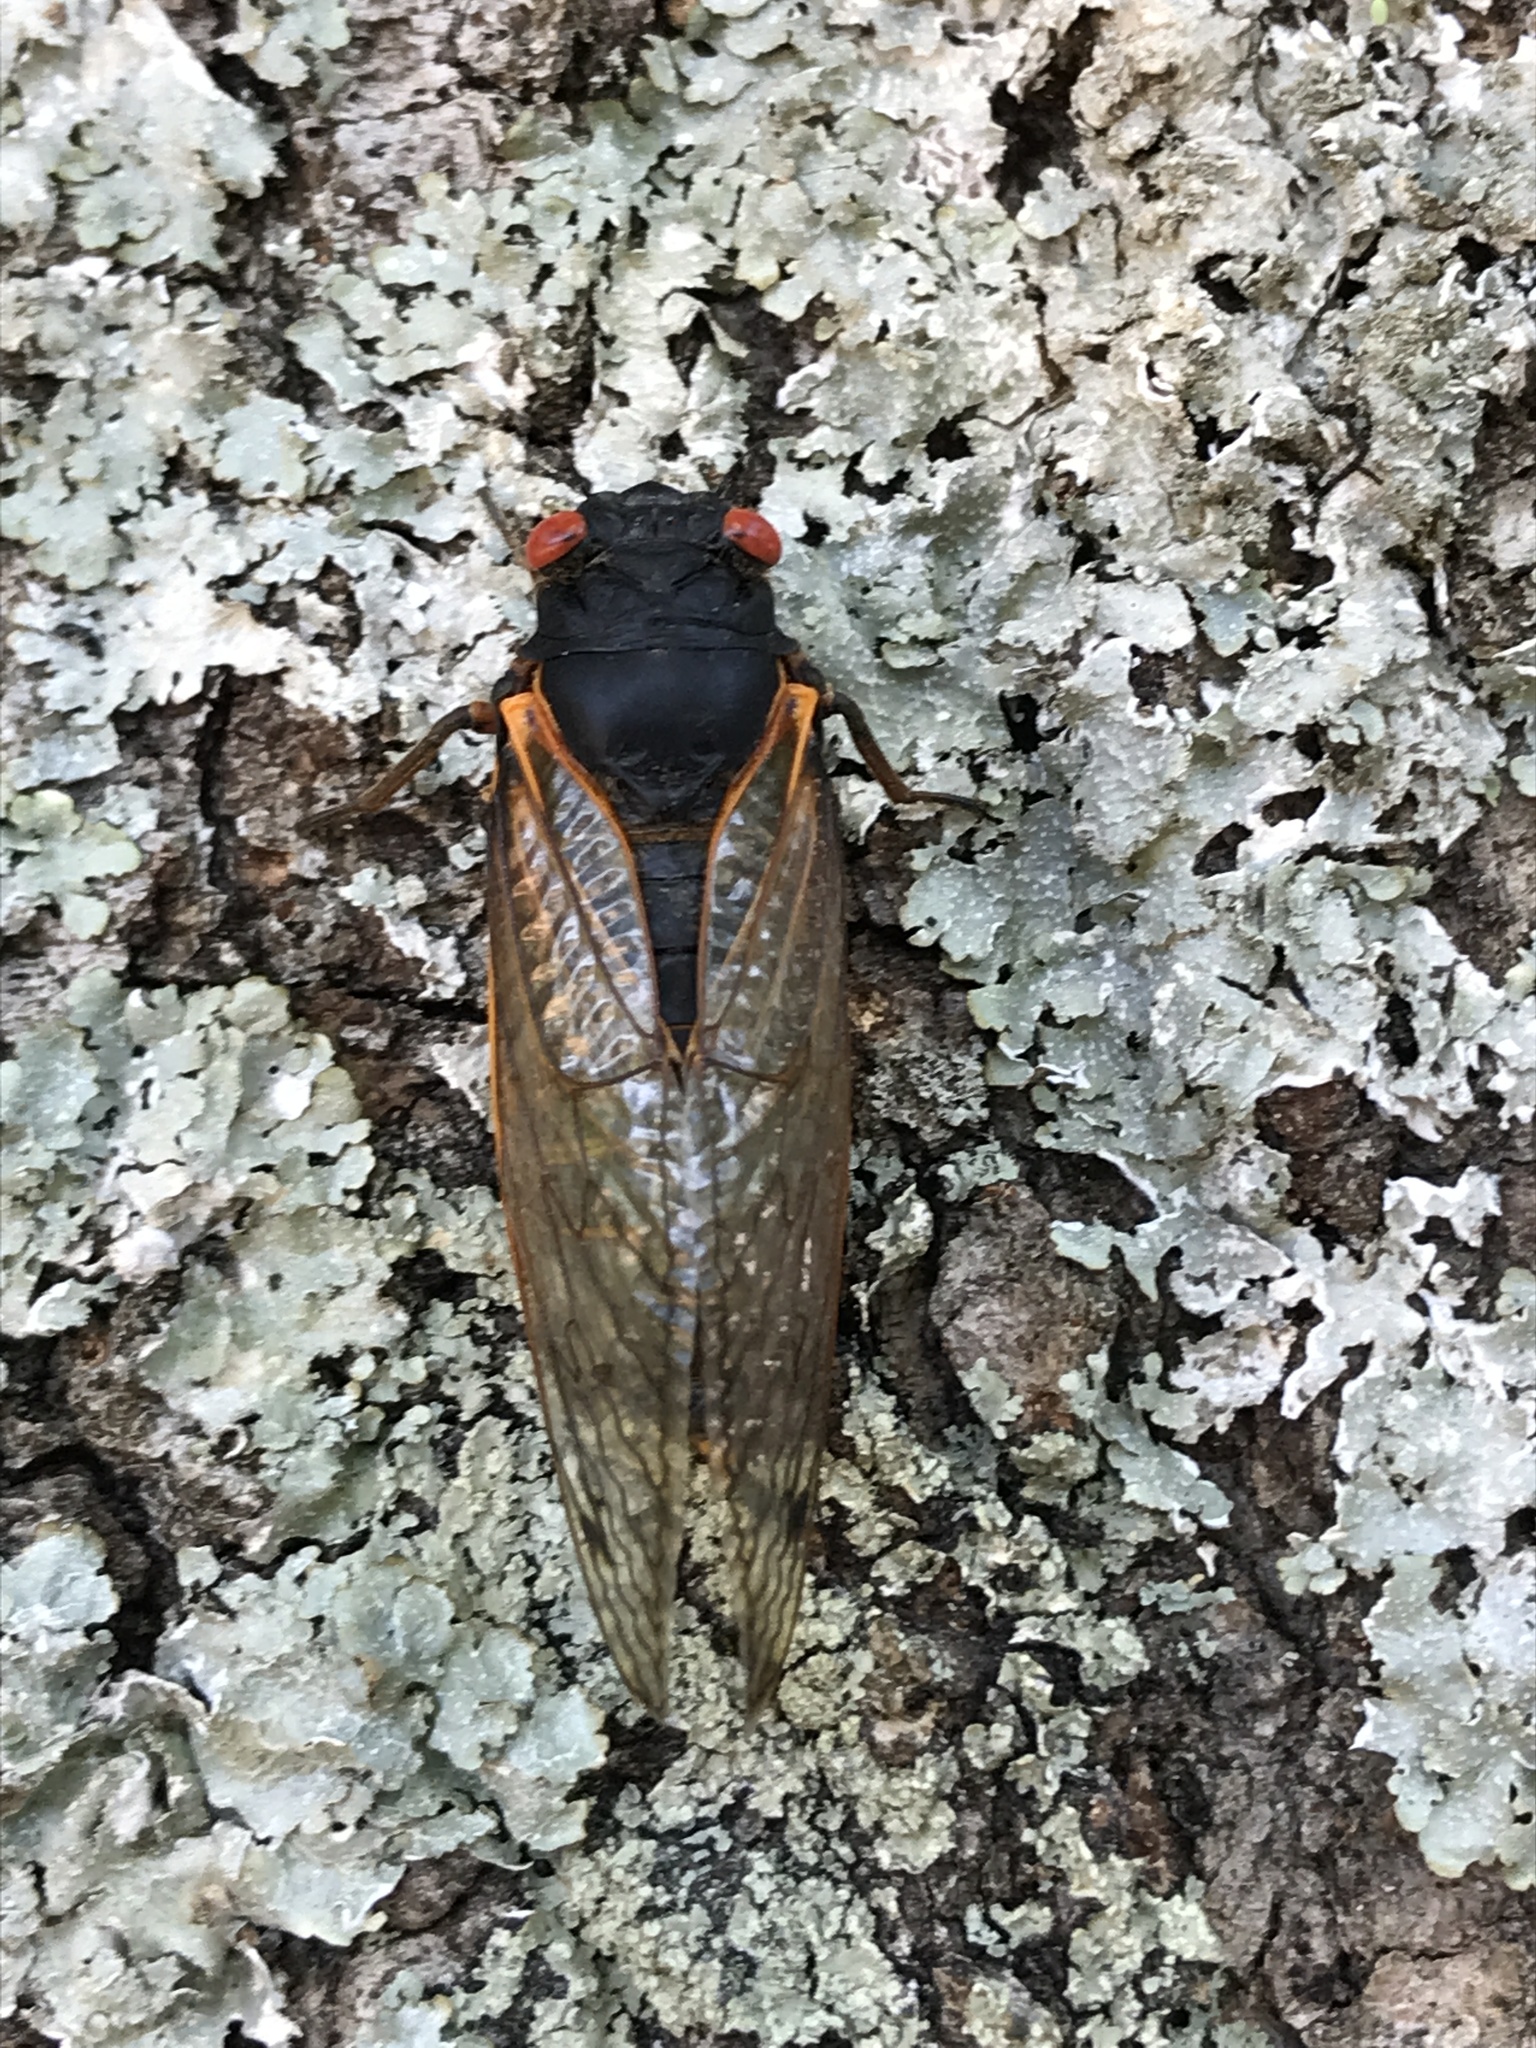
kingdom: Animalia
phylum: Arthropoda
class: Insecta
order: Hemiptera
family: Cicadidae
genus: Magicicada
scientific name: Magicicada
